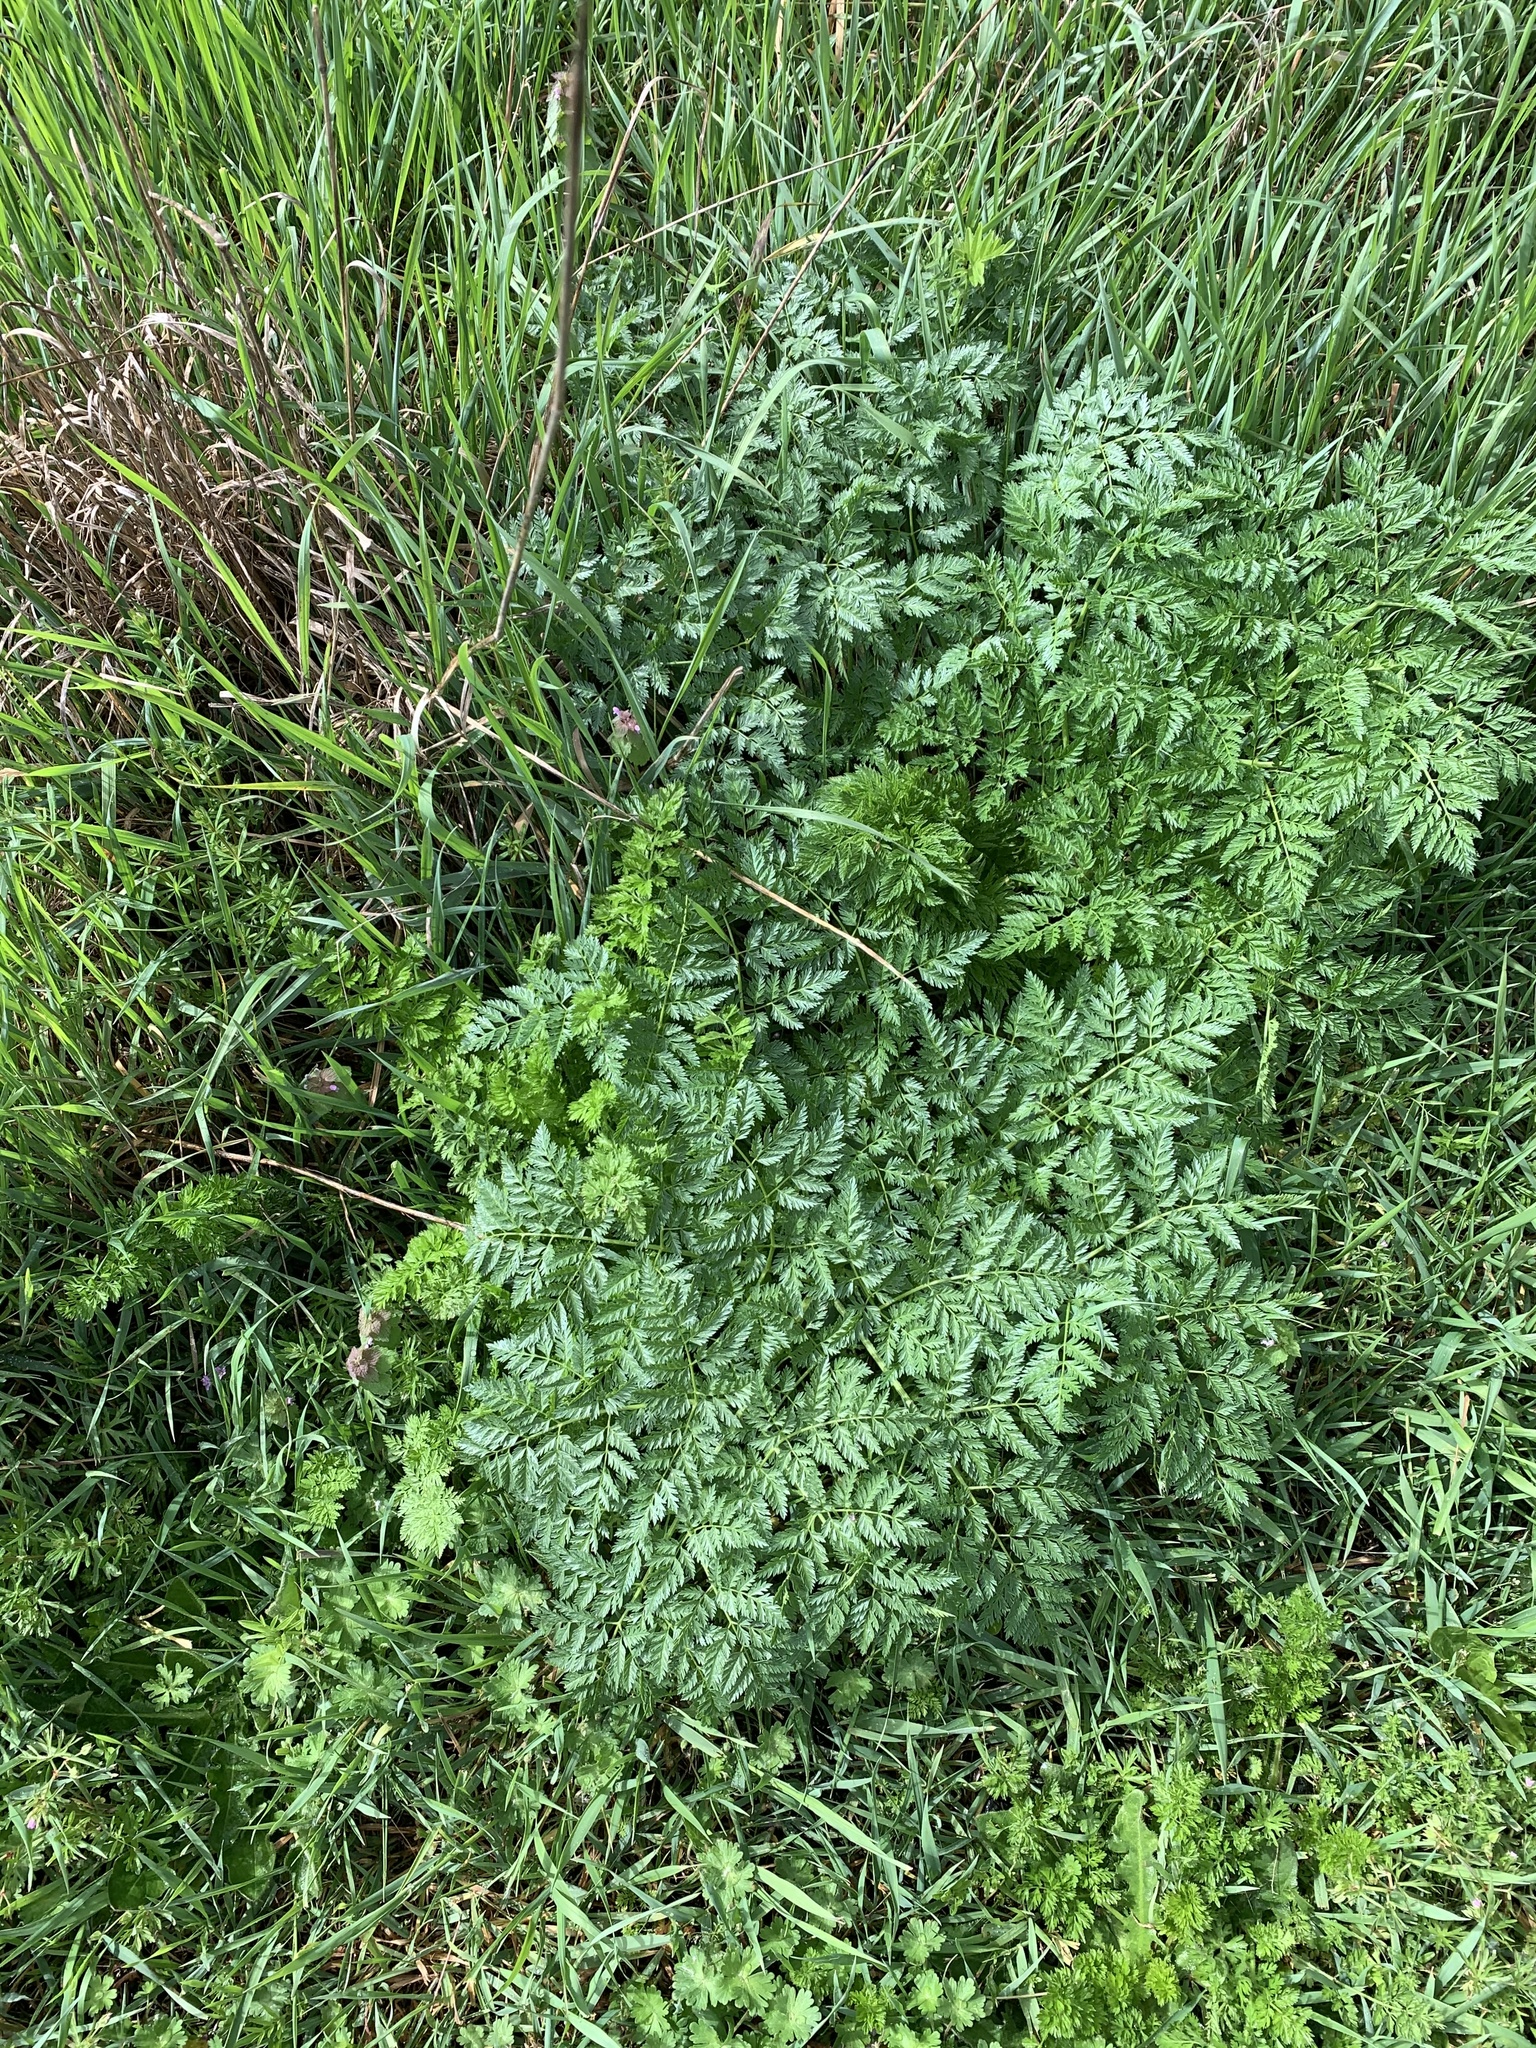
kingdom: Plantae
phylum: Tracheophyta
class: Magnoliopsida
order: Apiales
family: Apiaceae
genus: Conium
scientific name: Conium maculatum
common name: Hemlock
